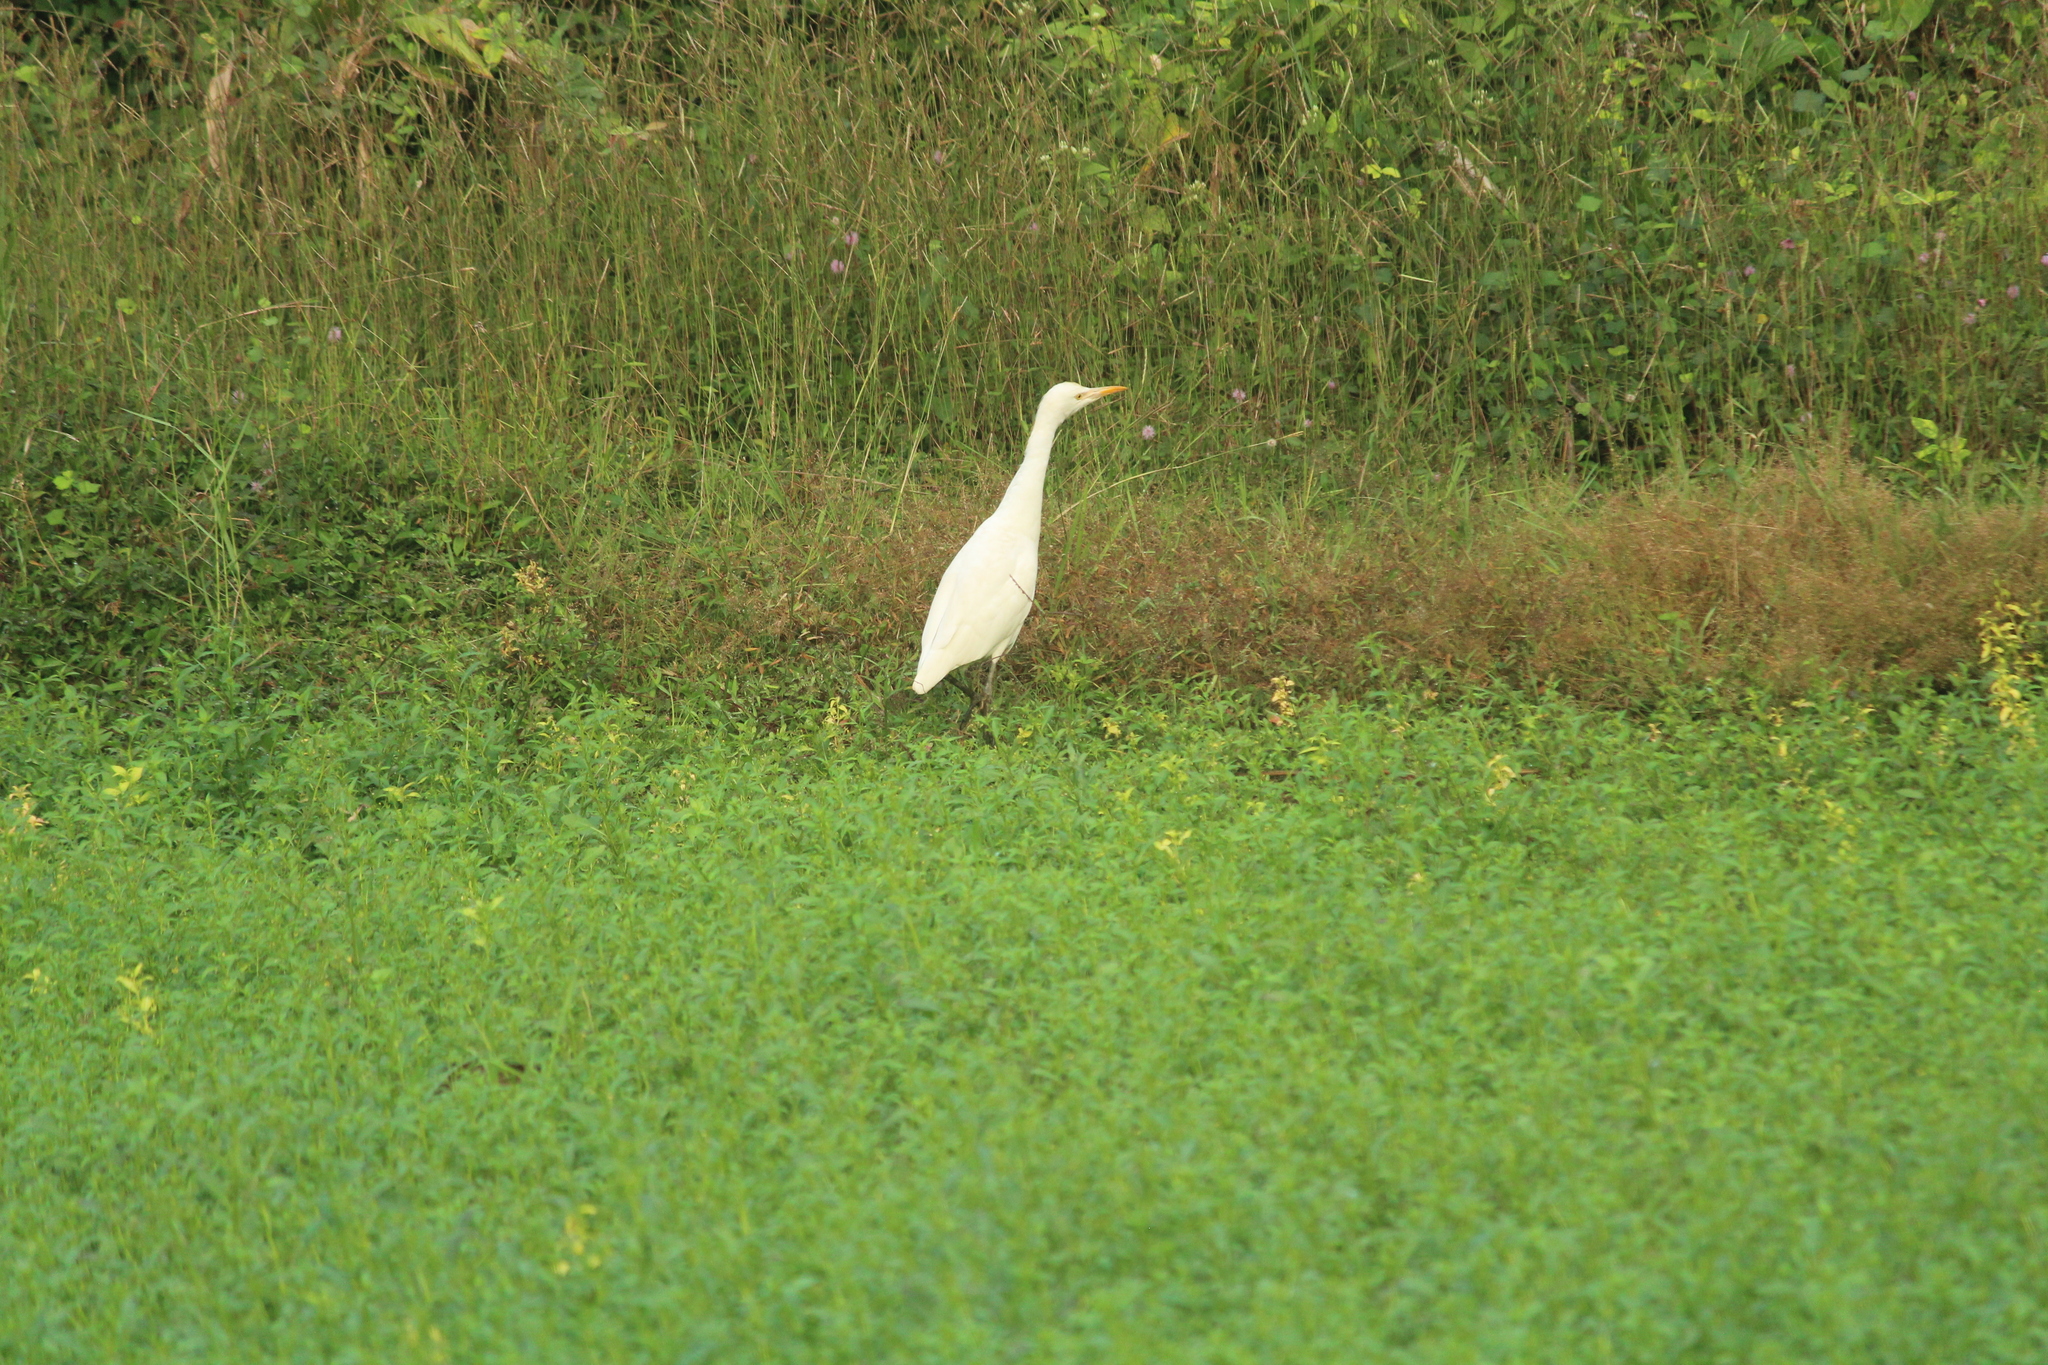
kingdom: Animalia
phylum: Chordata
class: Aves
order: Pelecaniformes
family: Ardeidae
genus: Bubulcus
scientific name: Bubulcus coromandus
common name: Eastern cattle egret
